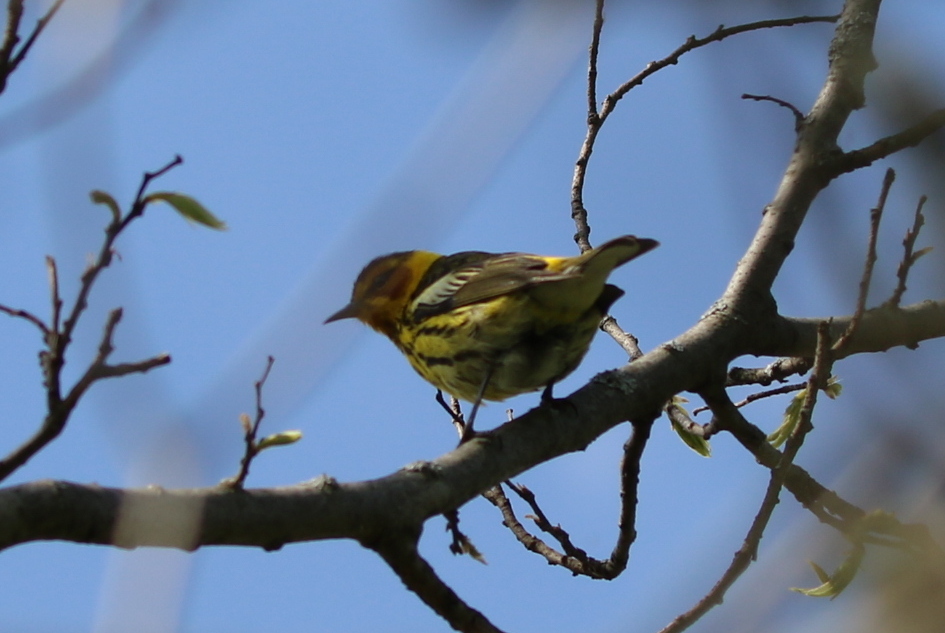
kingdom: Animalia
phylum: Chordata
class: Aves
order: Passeriformes
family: Parulidae
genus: Setophaga
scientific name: Setophaga tigrina
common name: Cape may warbler
